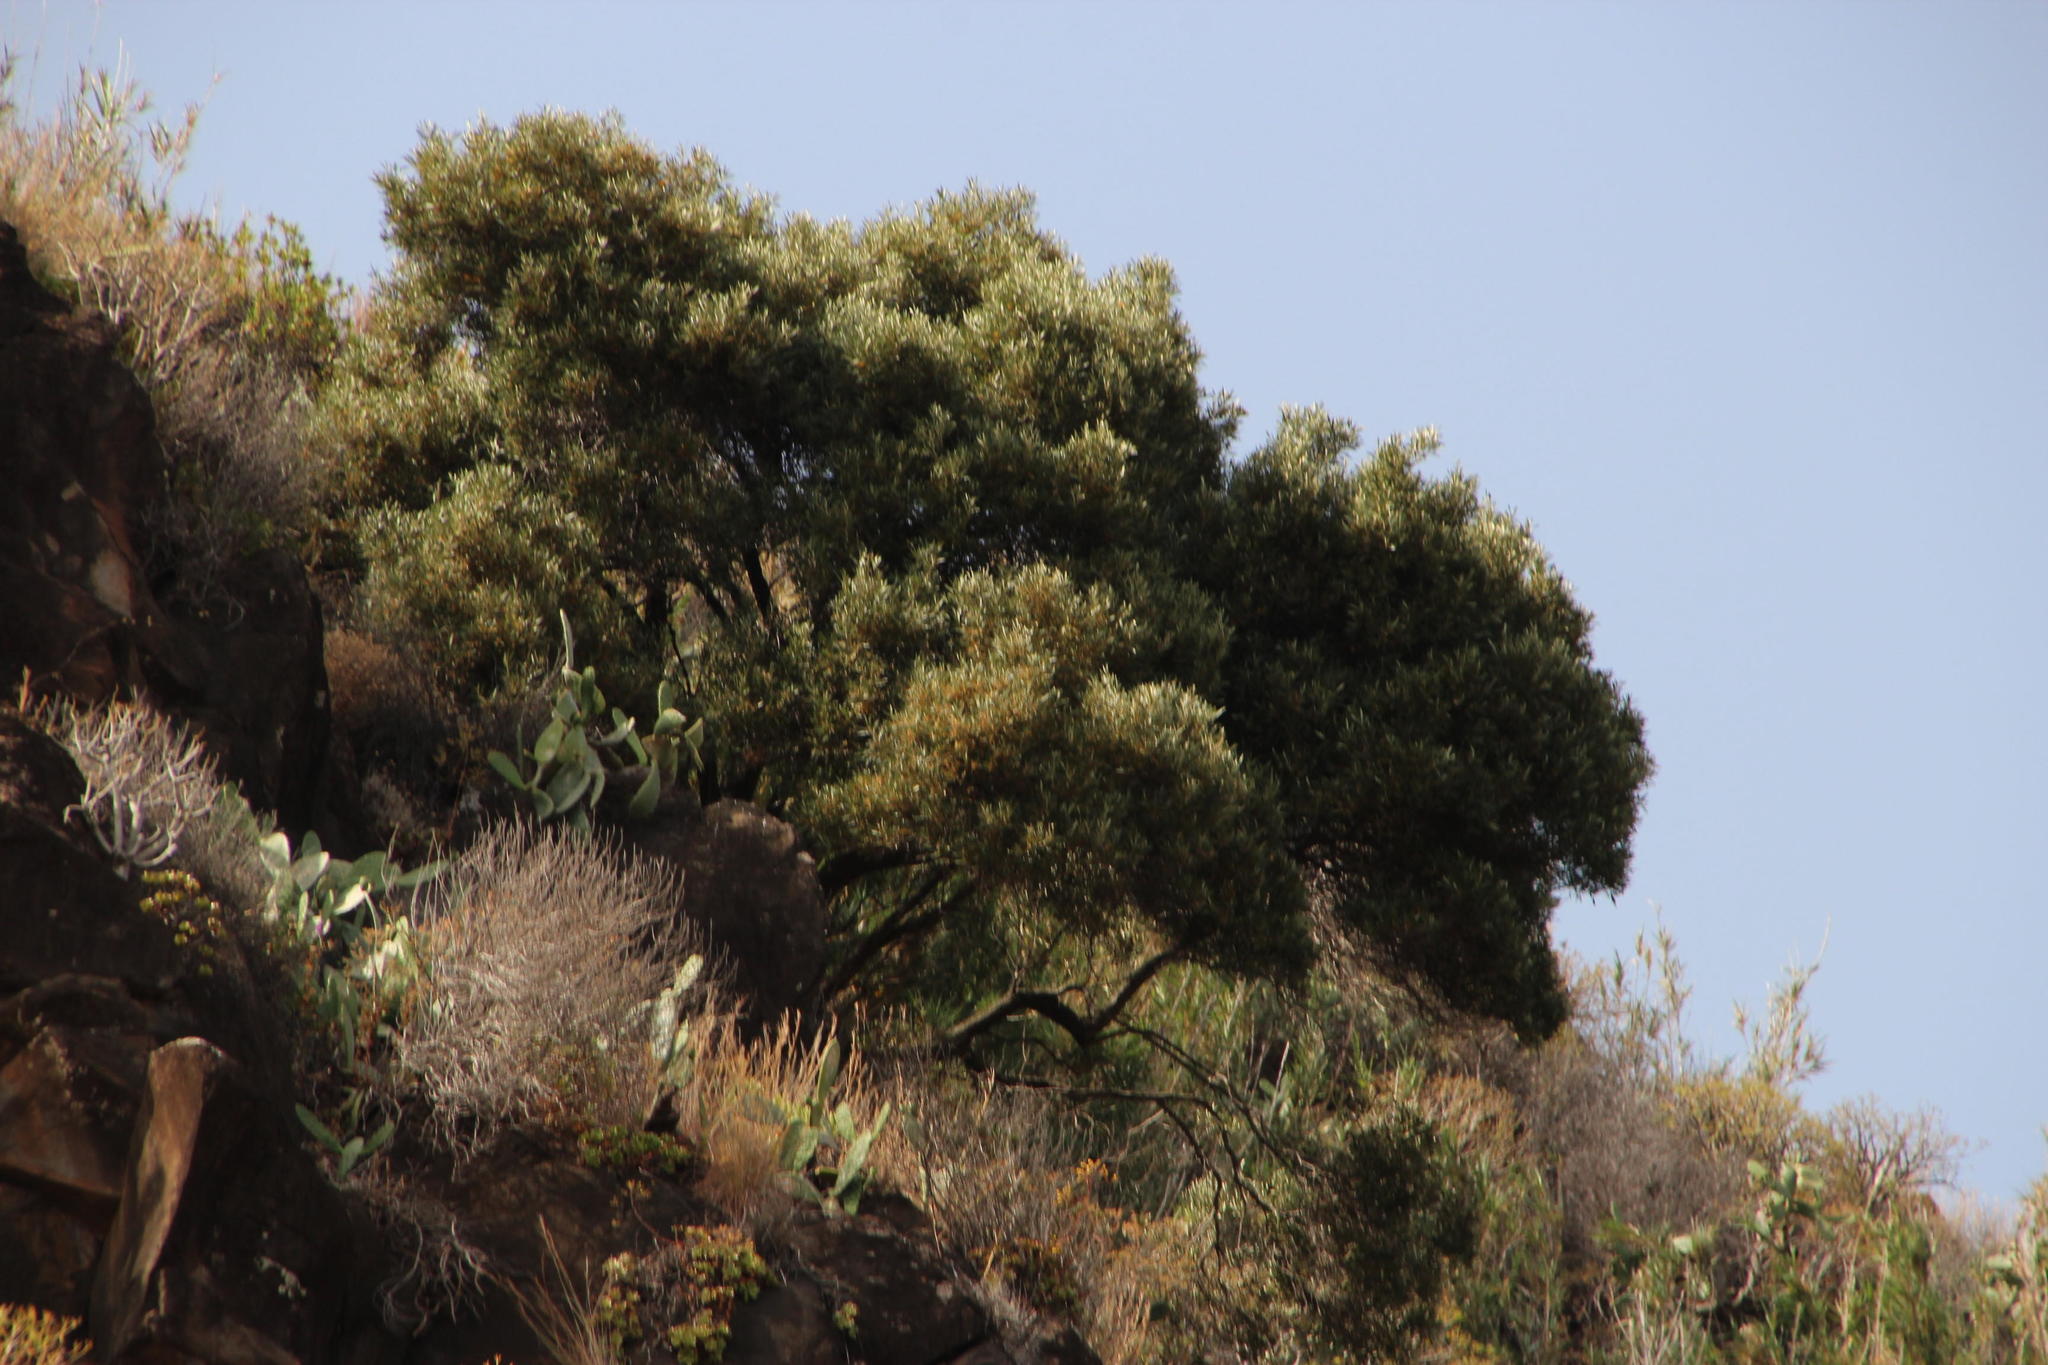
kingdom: Plantae
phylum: Tracheophyta
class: Magnoliopsida
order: Lamiales
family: Oleaceae
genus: Olea
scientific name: Olea europaea
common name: Olive
